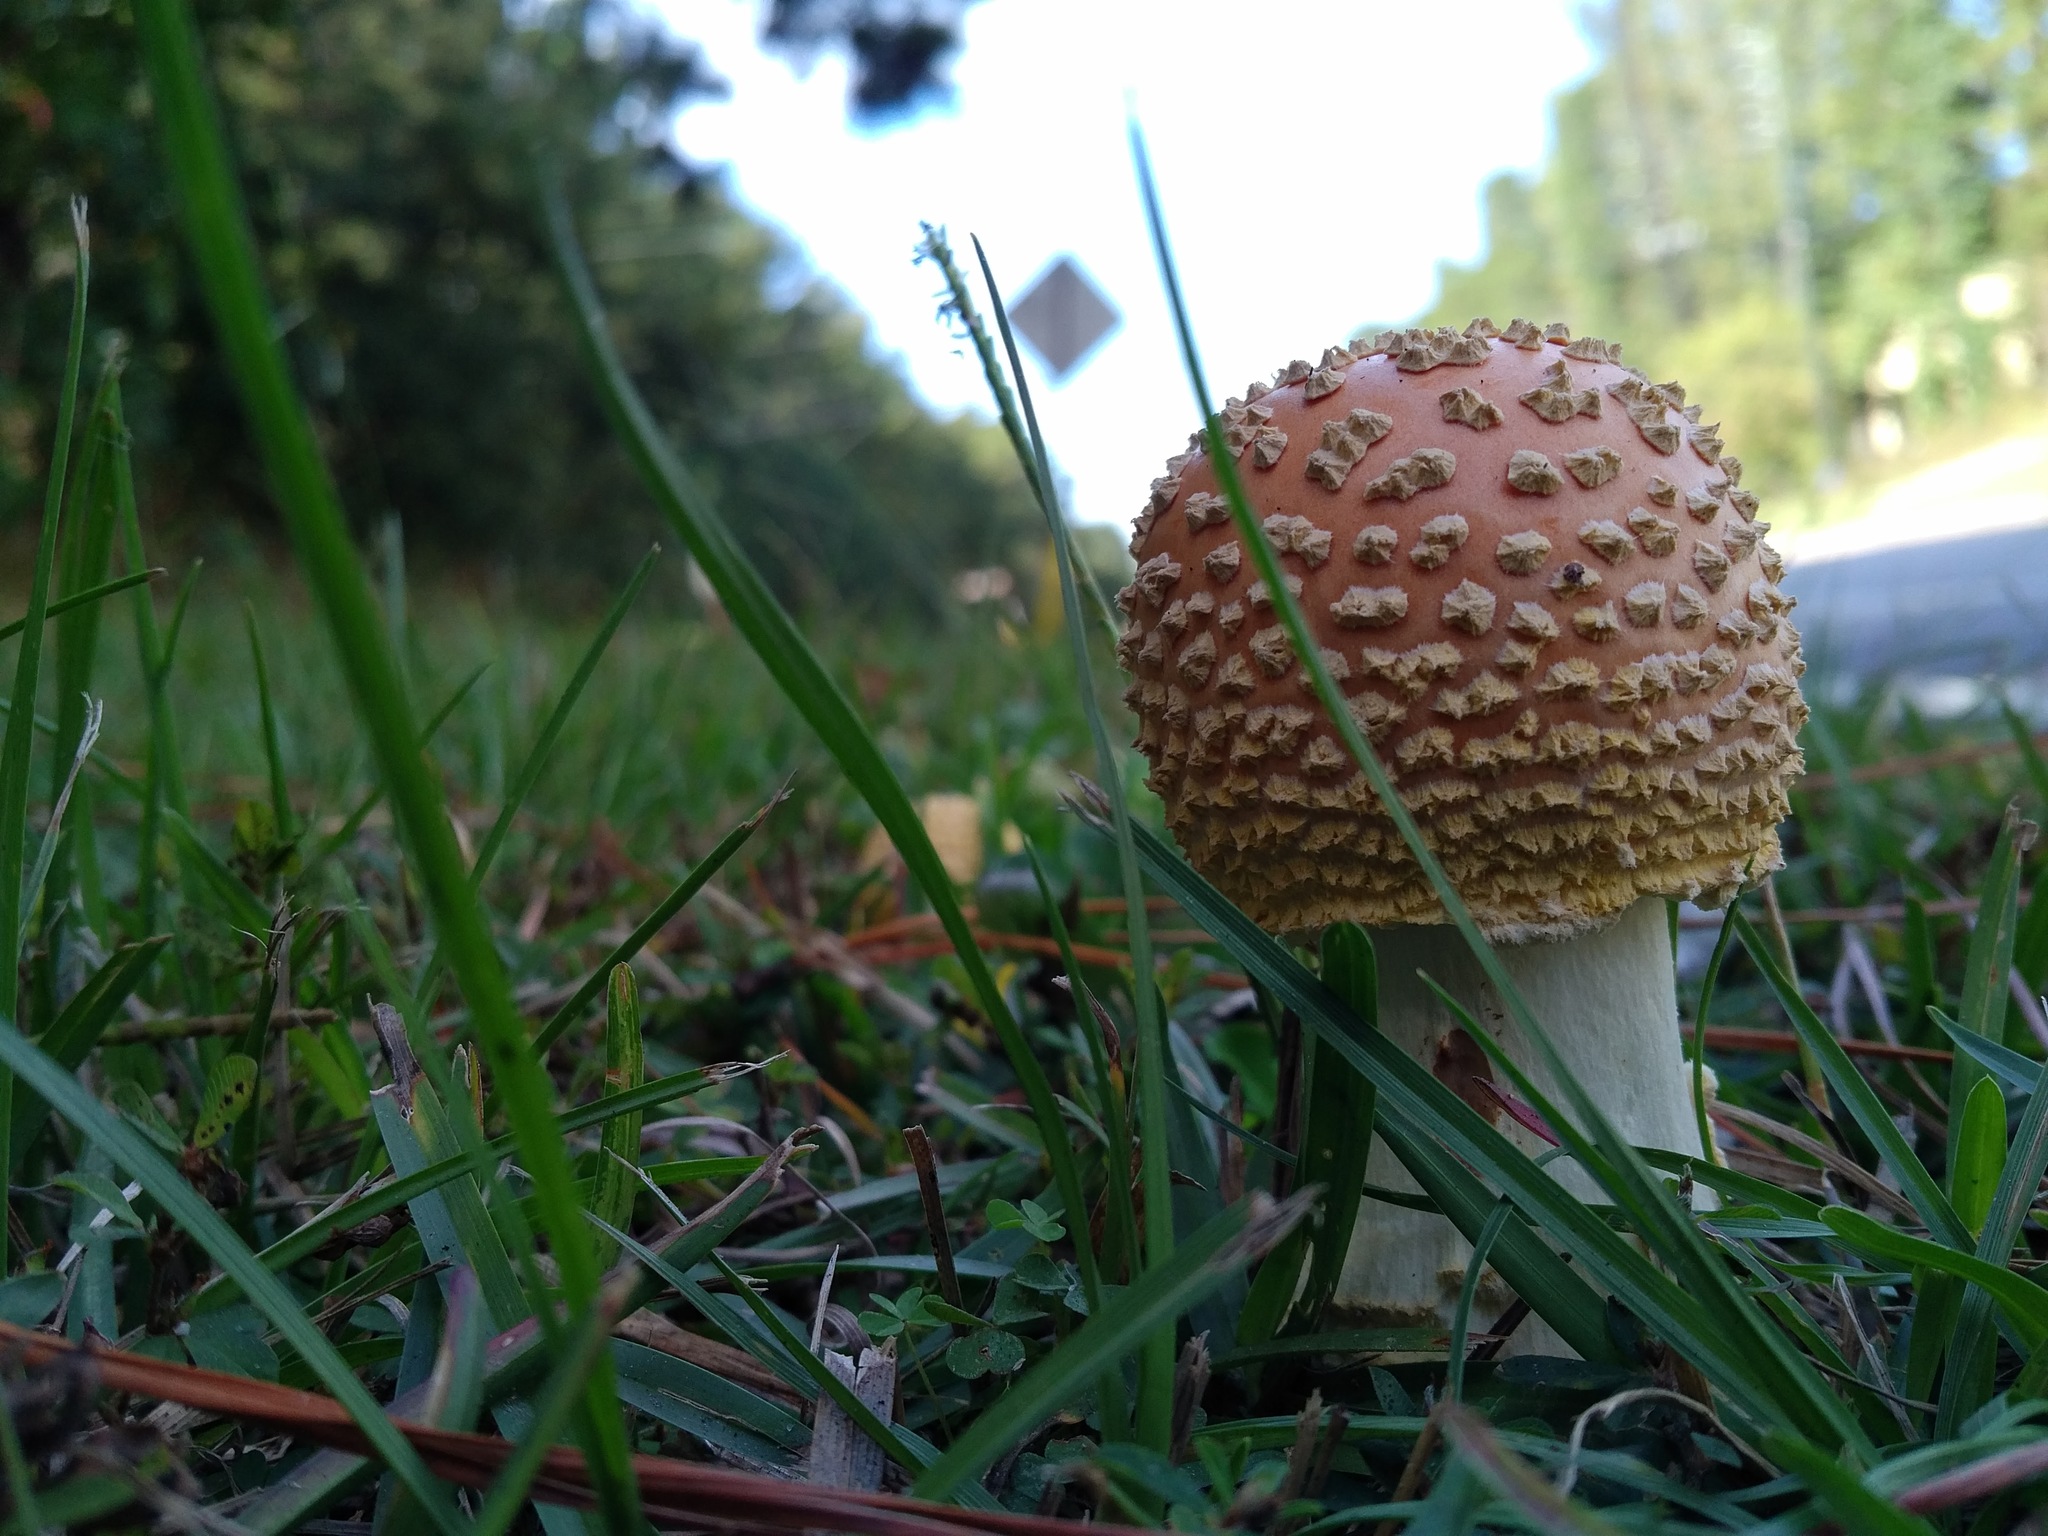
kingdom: Fungi
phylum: Basidiomycota
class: Agaricomycetes
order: Agaricales
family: Amanitaceae
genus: Amanita
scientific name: Amanita persicina
